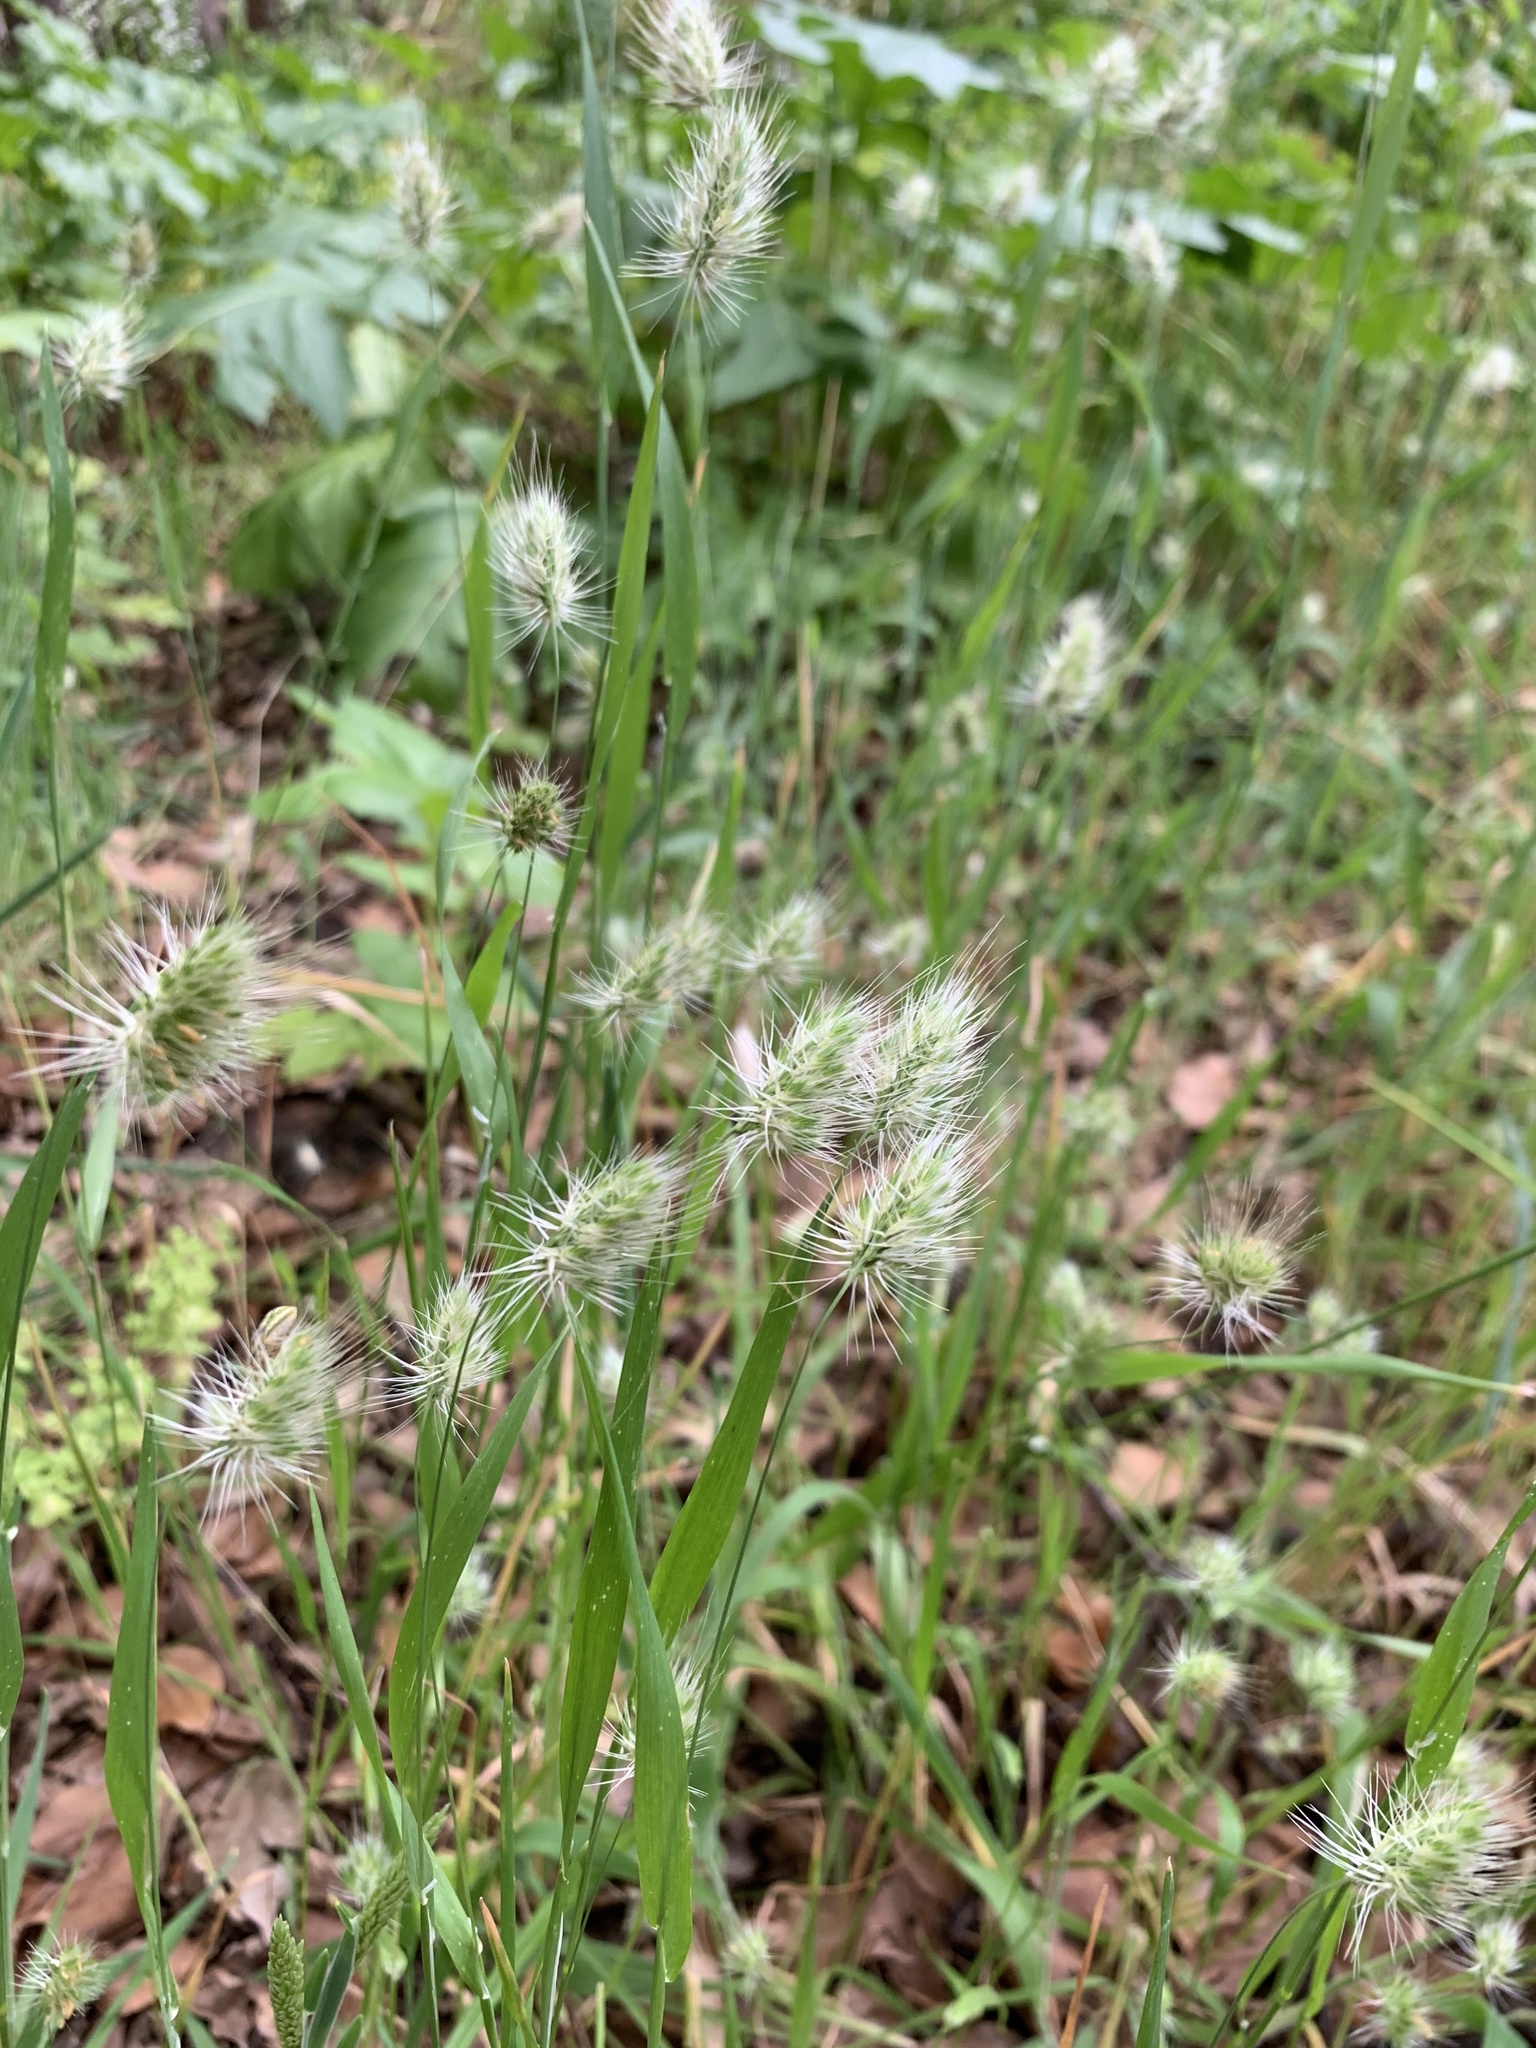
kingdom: Plantae
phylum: Tracheophyta
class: Liliopsida
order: Poales
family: Poaceae
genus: Cynosurus
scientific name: Cynosurus echinatus
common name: Rough dog's-tail
